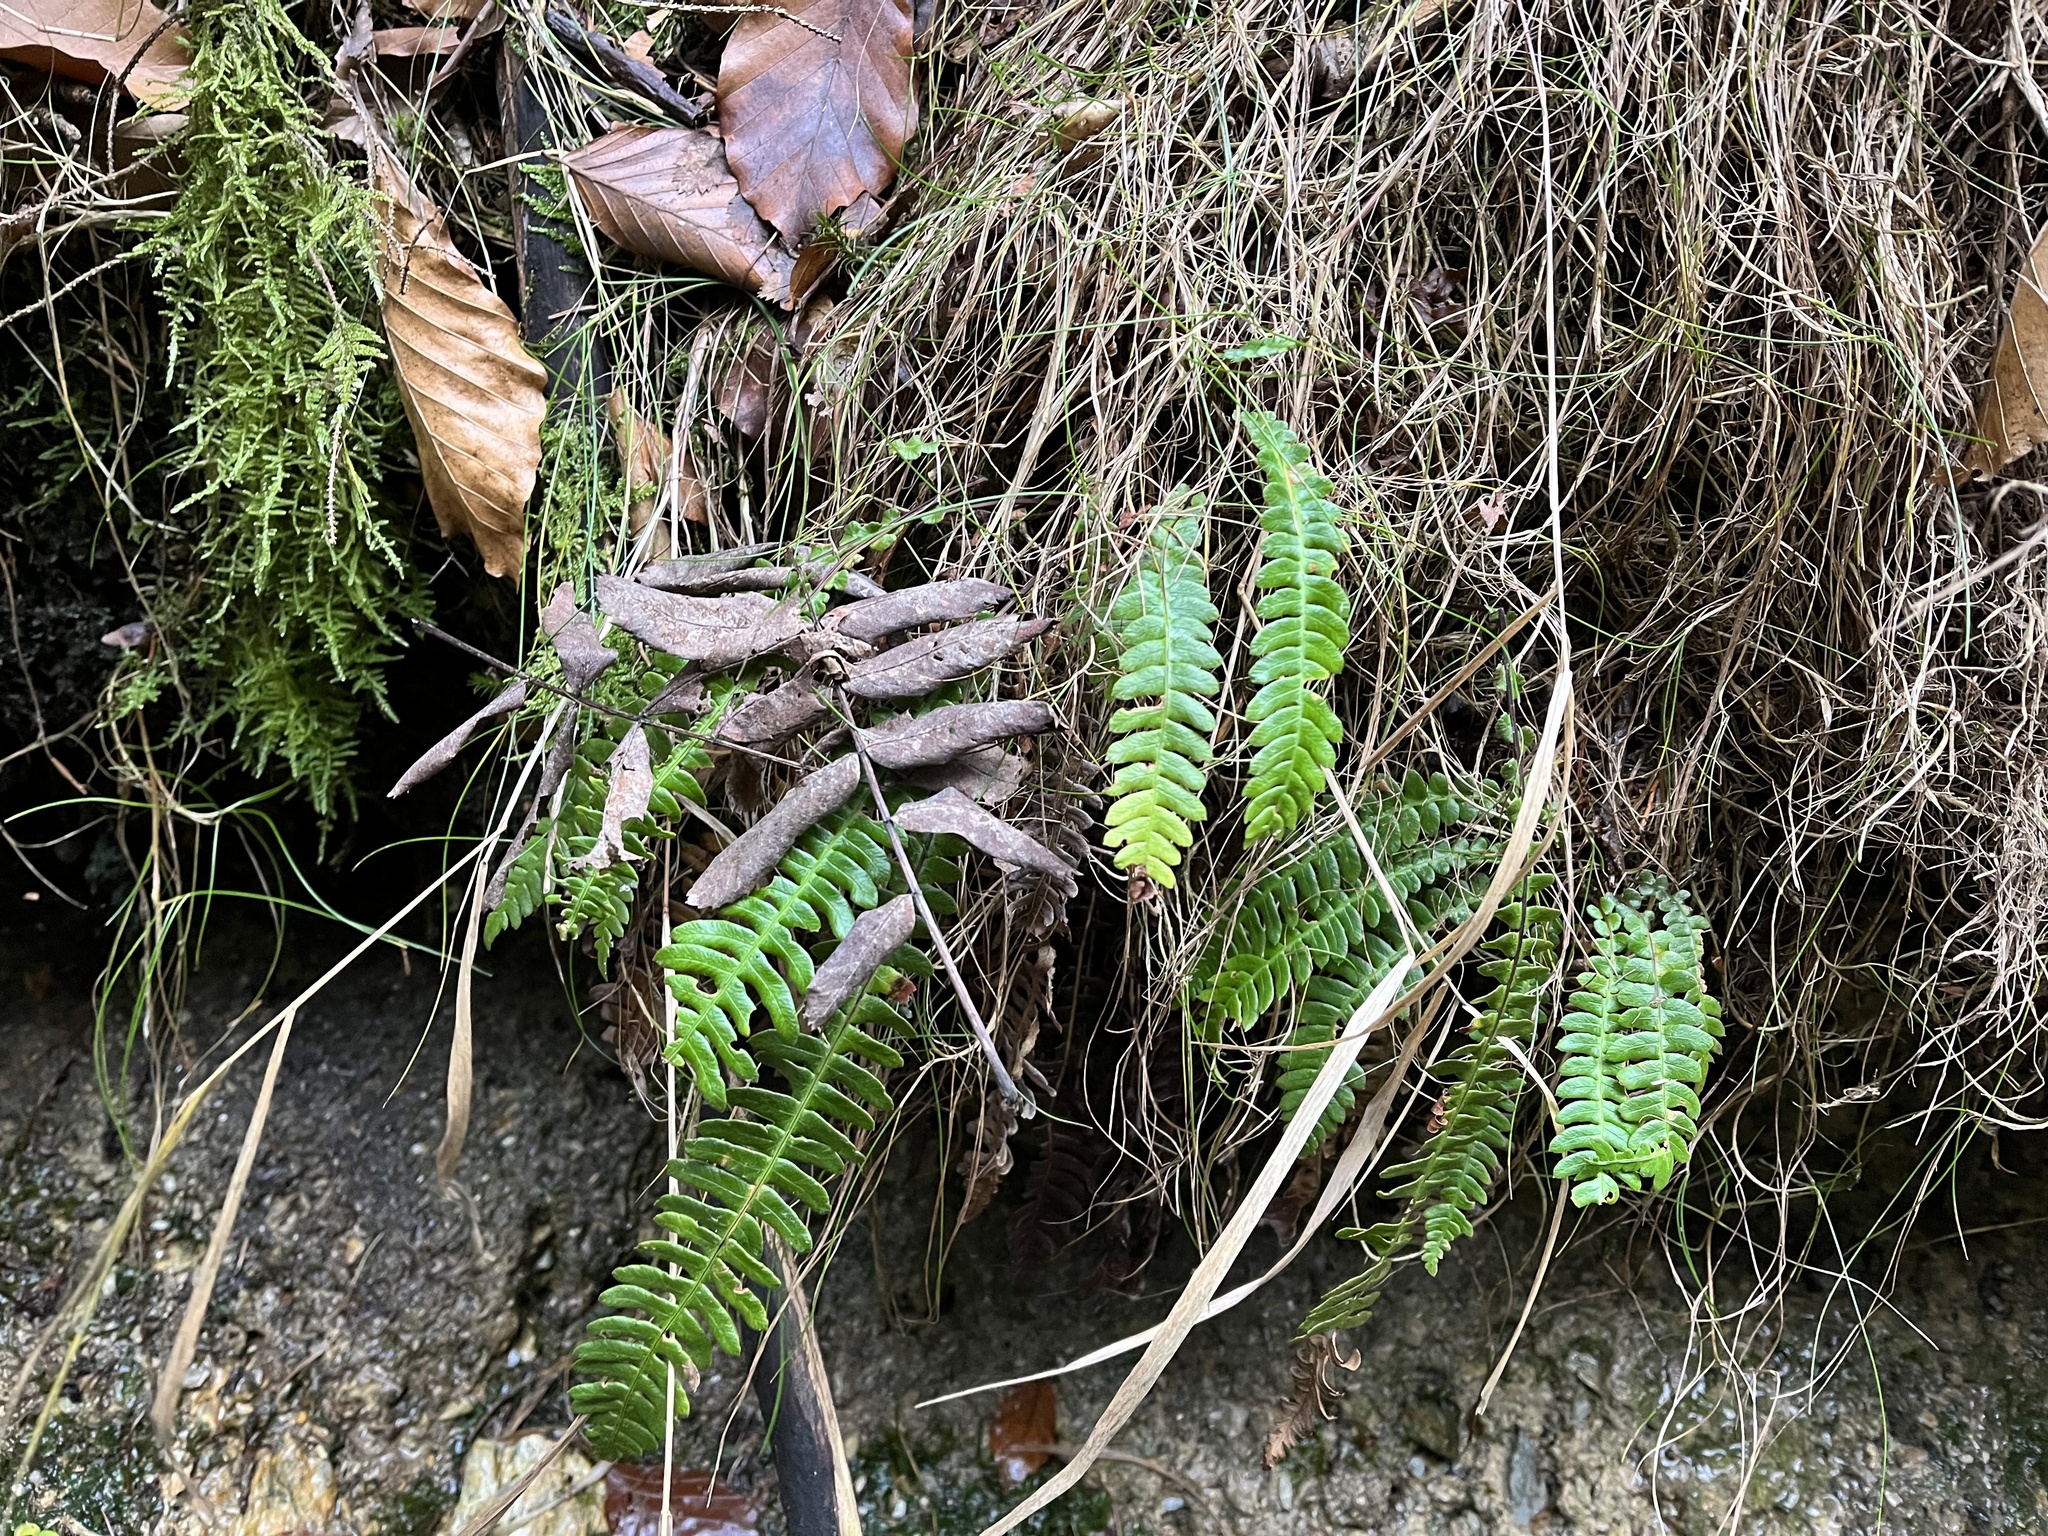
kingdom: Plantae
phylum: Tracheophyta
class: Polypodiopsida
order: Polypodiales
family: Blechnaceae
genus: Struthiopteris
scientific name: Struthiopteris spicant
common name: Deer fern
